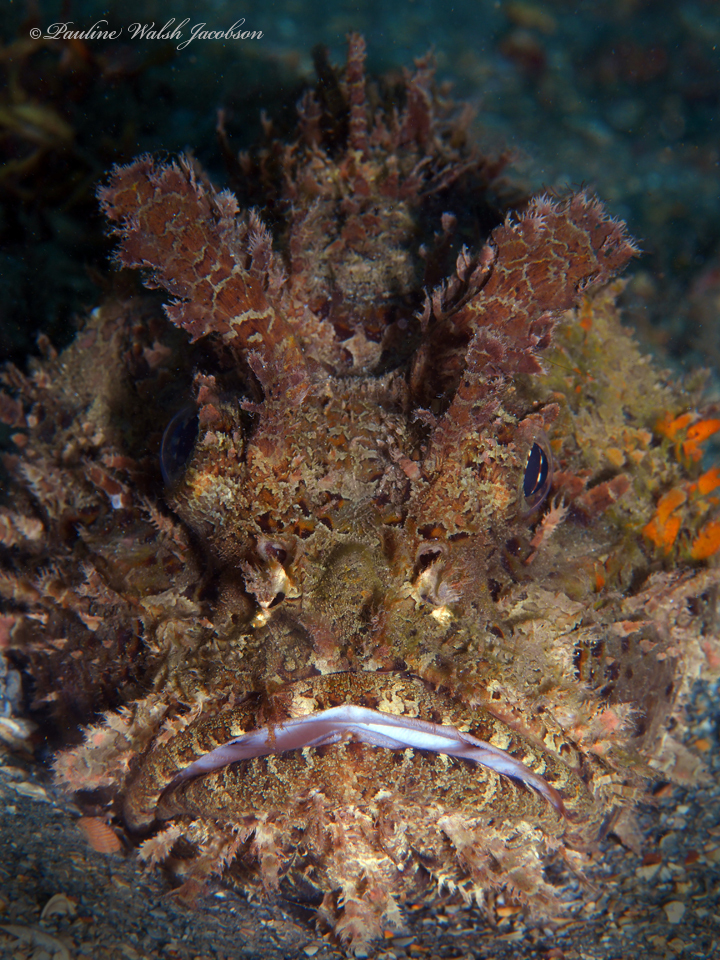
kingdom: Animalia
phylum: Chordata
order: Scorpaeniformes
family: Scorpaenidae
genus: Scorpaena
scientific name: Scorpaena plumieri
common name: Spotted scorpionfish
